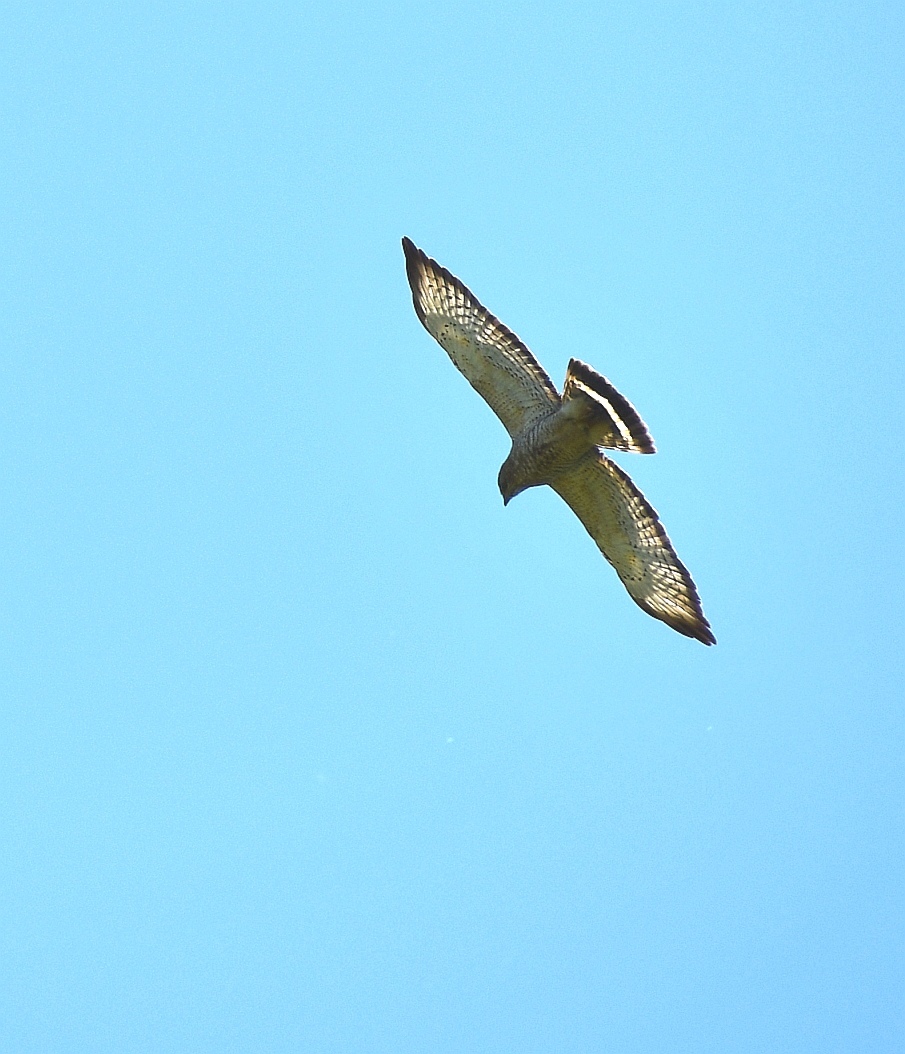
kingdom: Animalia
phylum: Chordata
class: Aves
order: Accipitriformes
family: Accipitridae
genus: Buteo
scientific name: Buteo platypterus
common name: Broad-winged hawk
